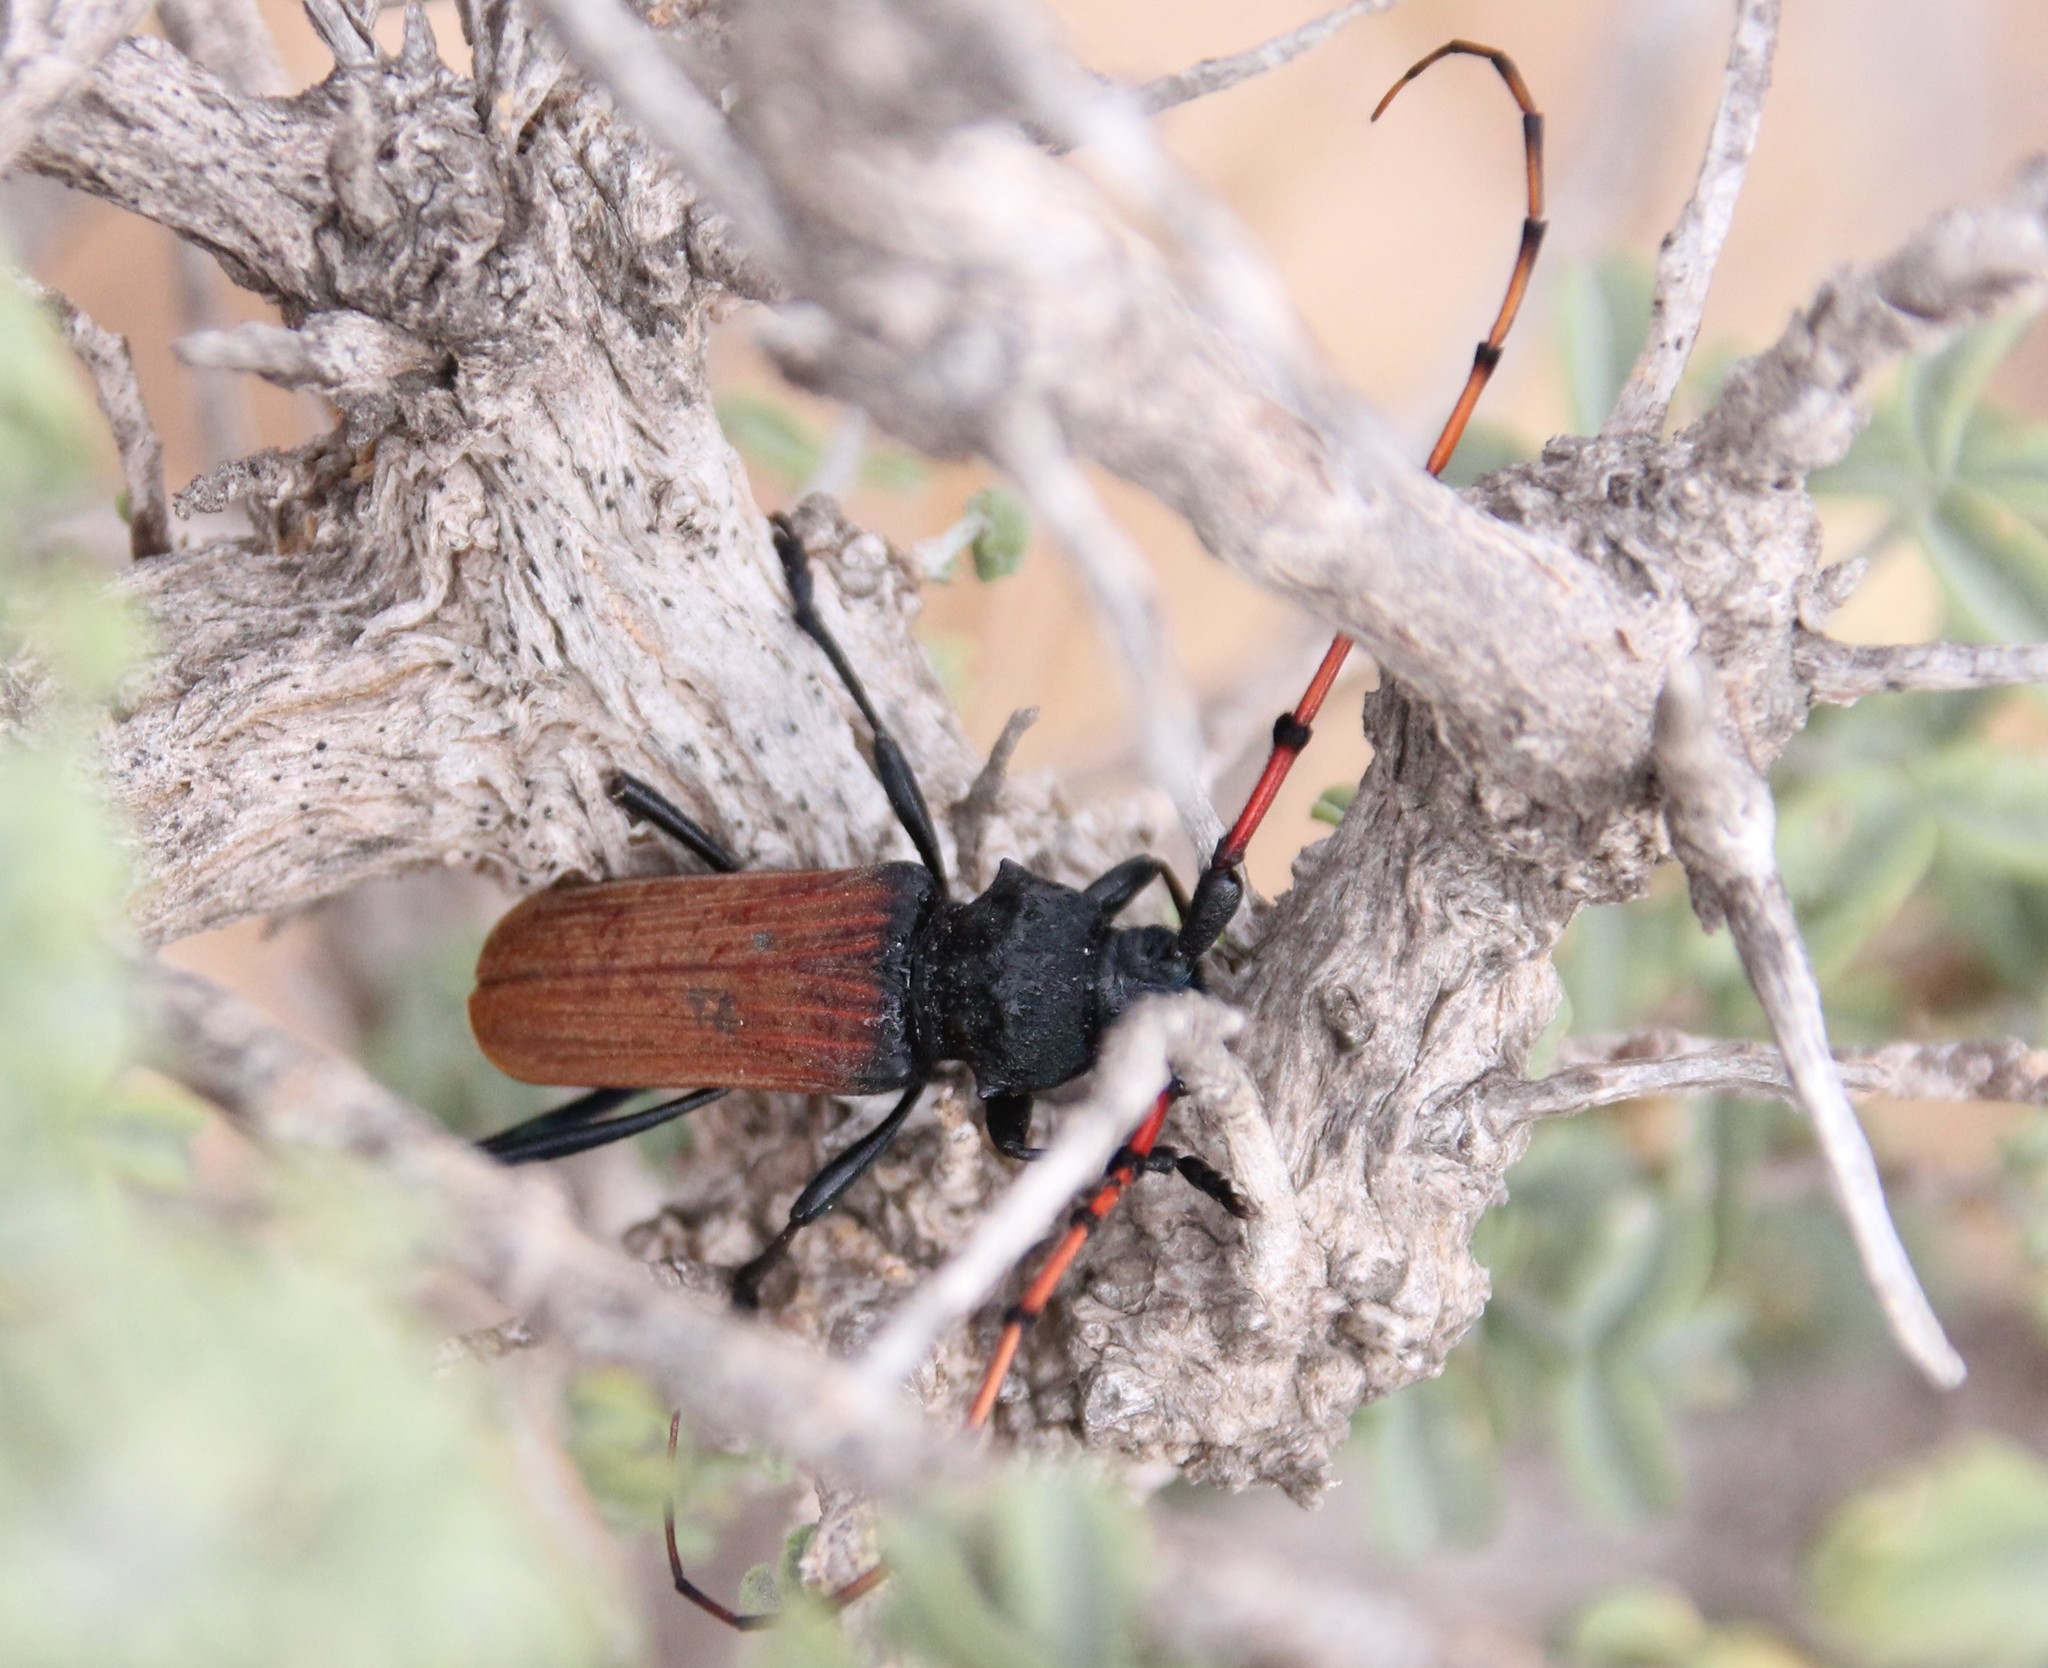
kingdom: Animalia
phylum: Arthropoda
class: Insecta
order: Coleoptera
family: Cerambycidae
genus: Tragidion
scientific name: Tragidion annulatum
